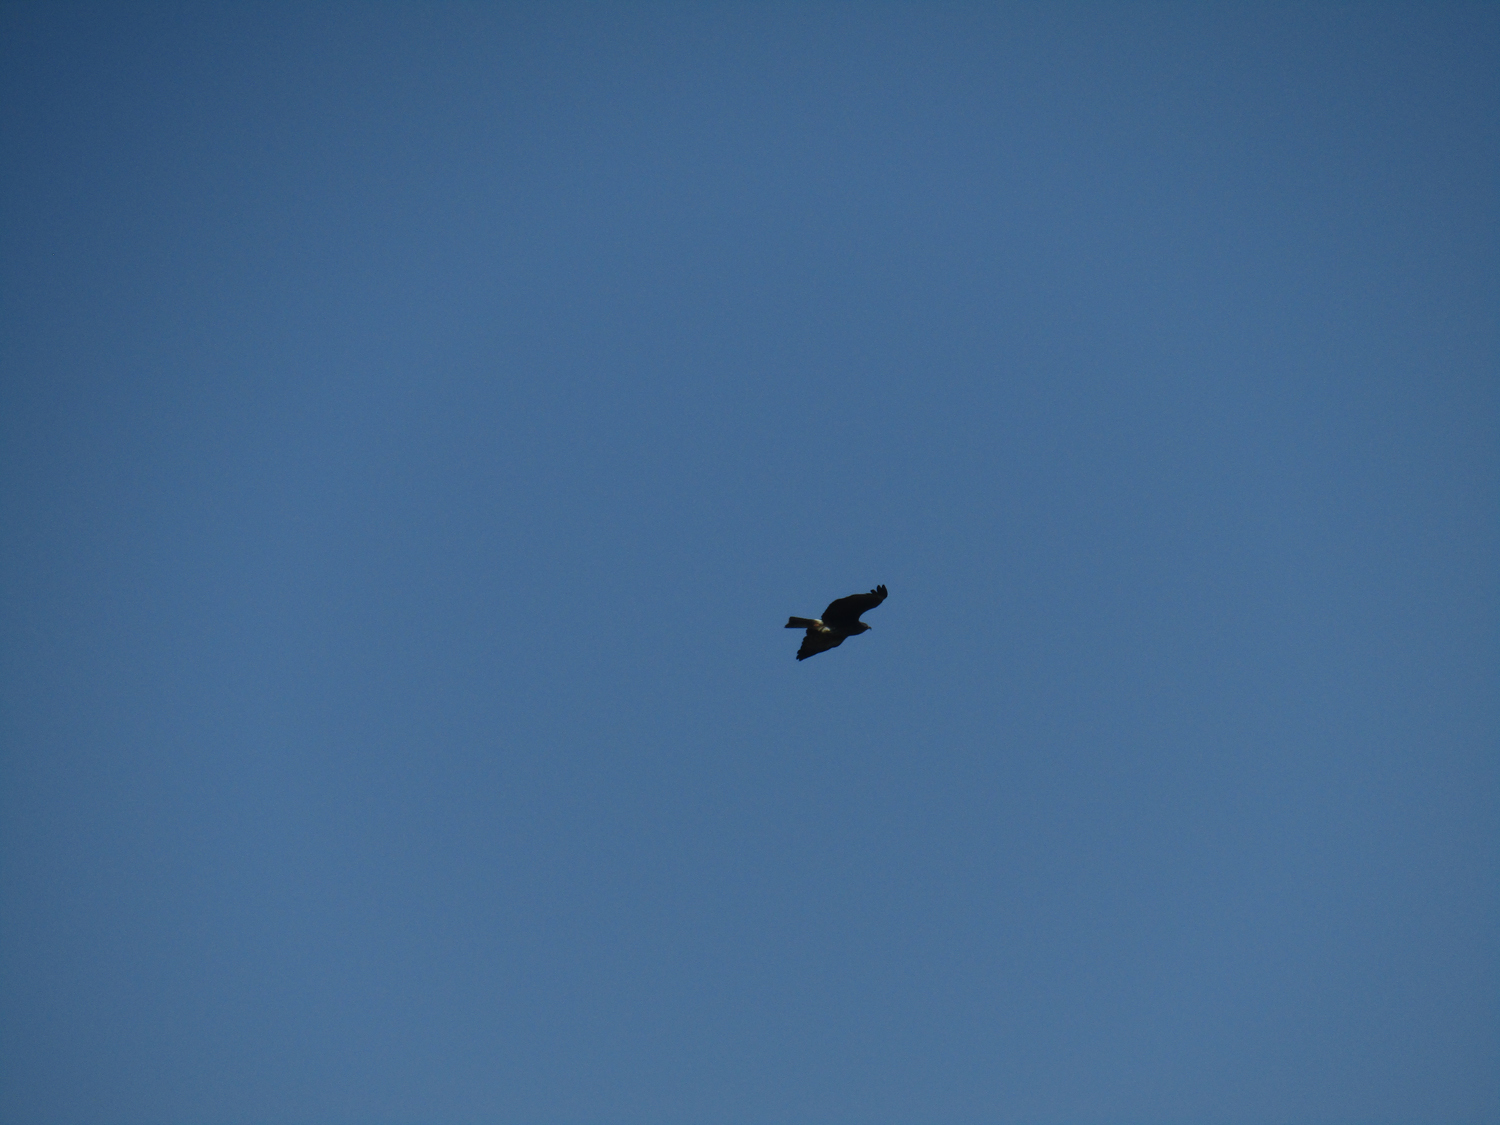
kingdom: Animalia
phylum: Chordata
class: Aves
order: Accipitriformes
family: Accipitridae
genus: Rostrhamus
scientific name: Rostrhamus sociabilis
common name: Snail kite
